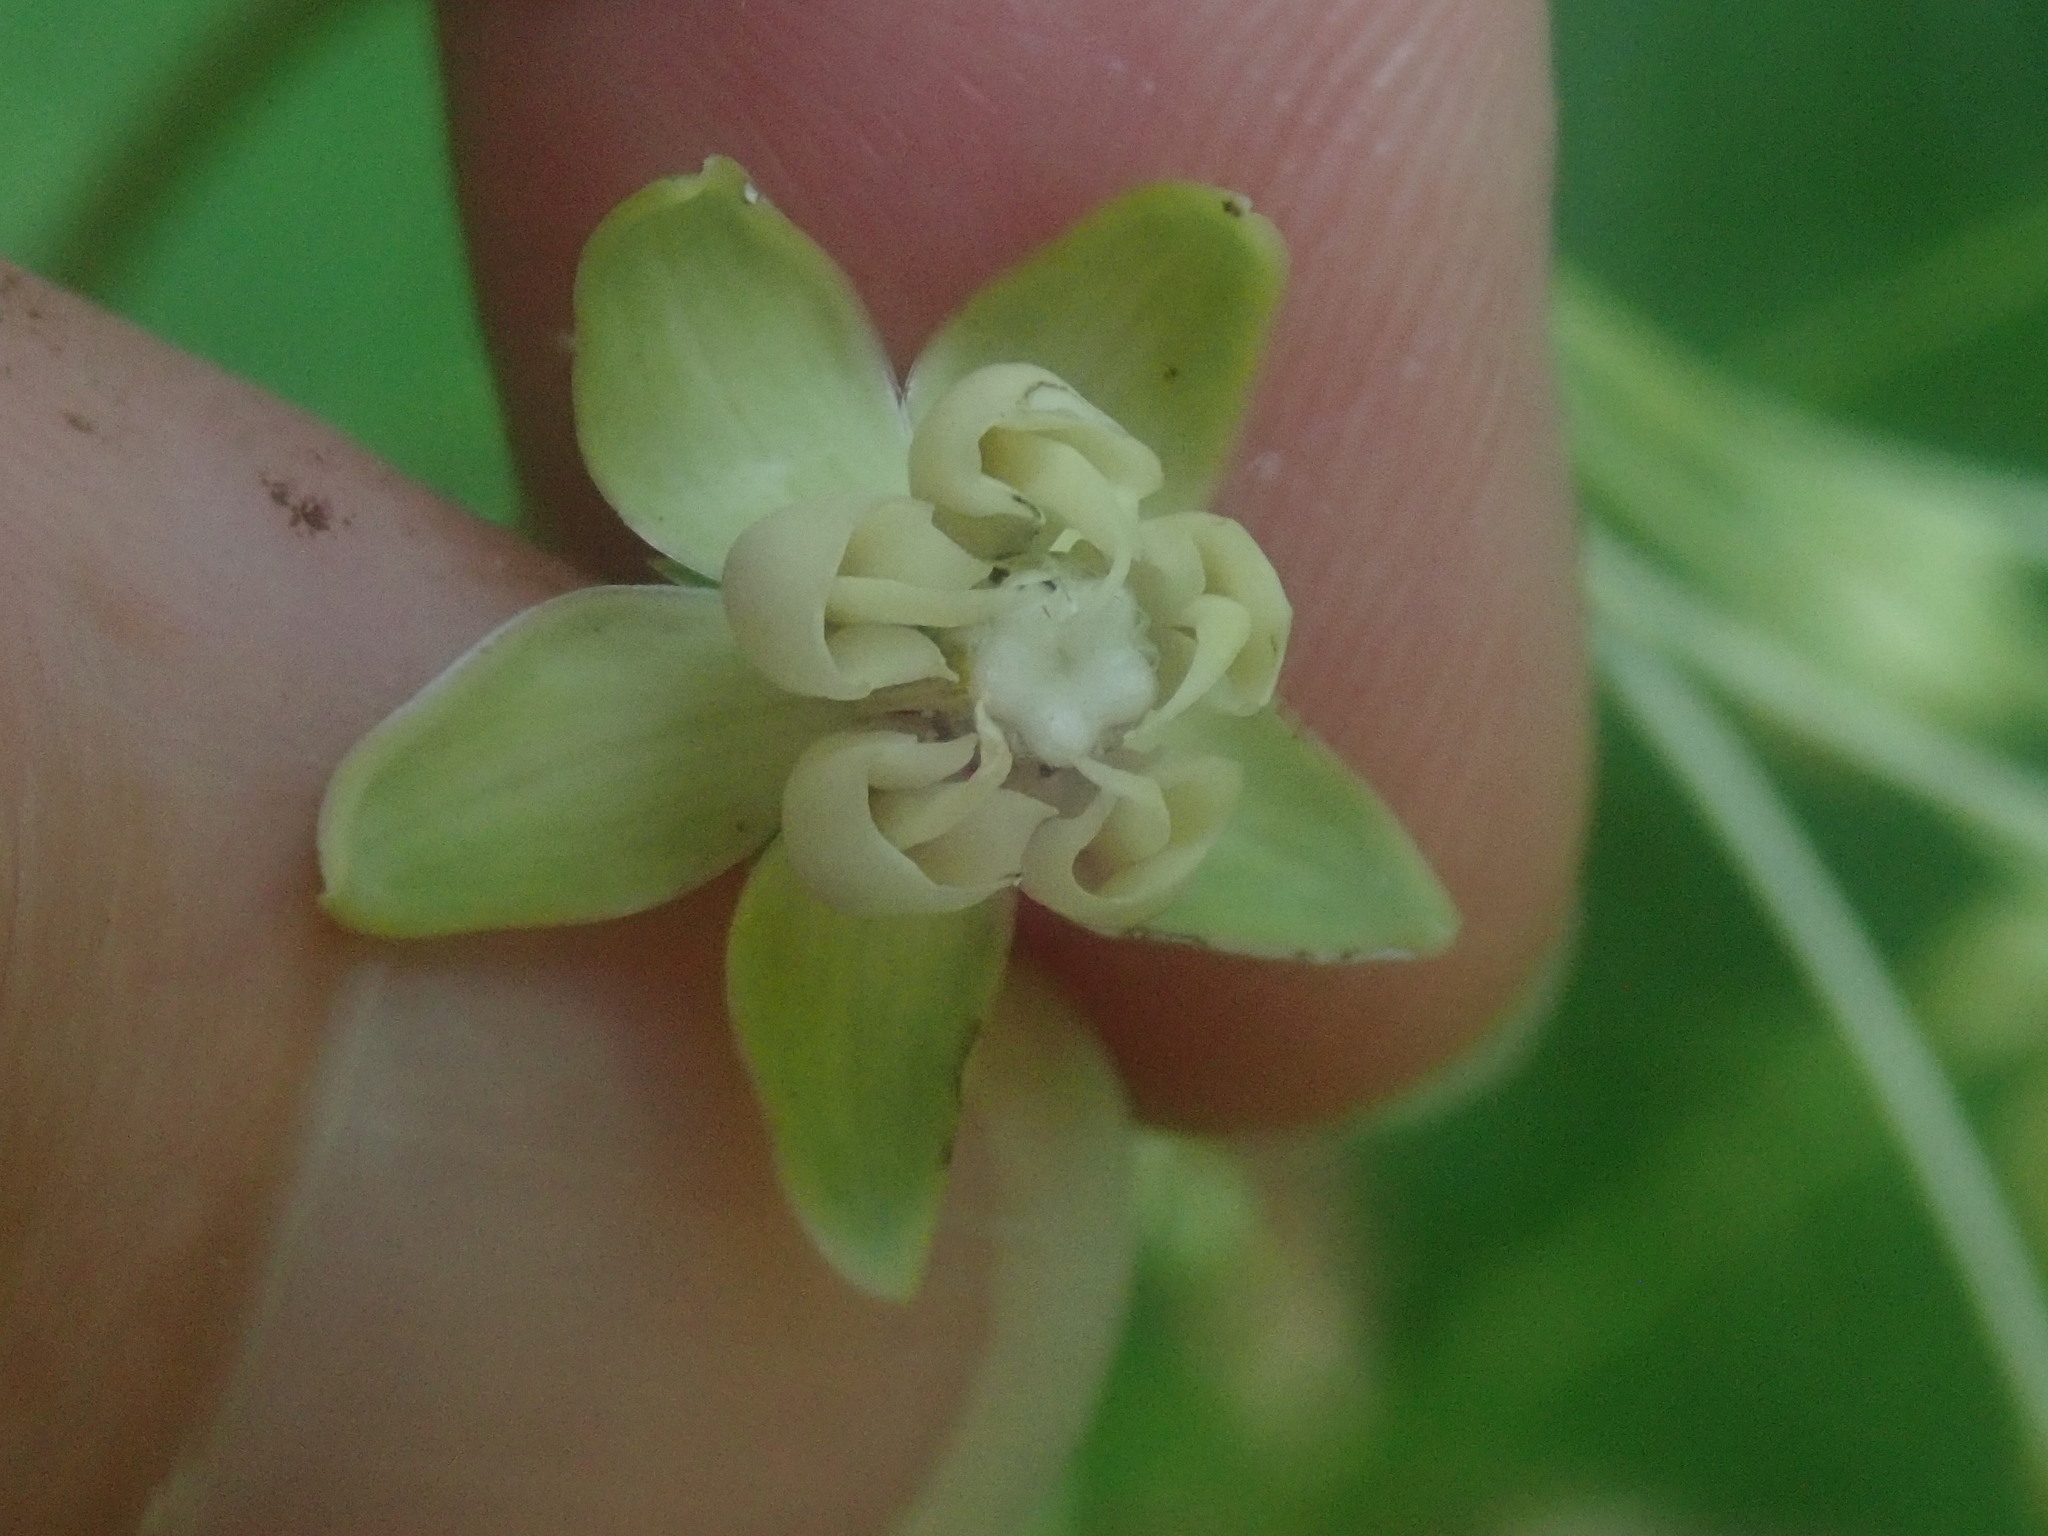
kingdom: Plantae
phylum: Tracheophyta
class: Magnoliopsida
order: Gentianales
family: Apocynaceae
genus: Asclepias
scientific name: Asclepias exaltata
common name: Poke milkweed
